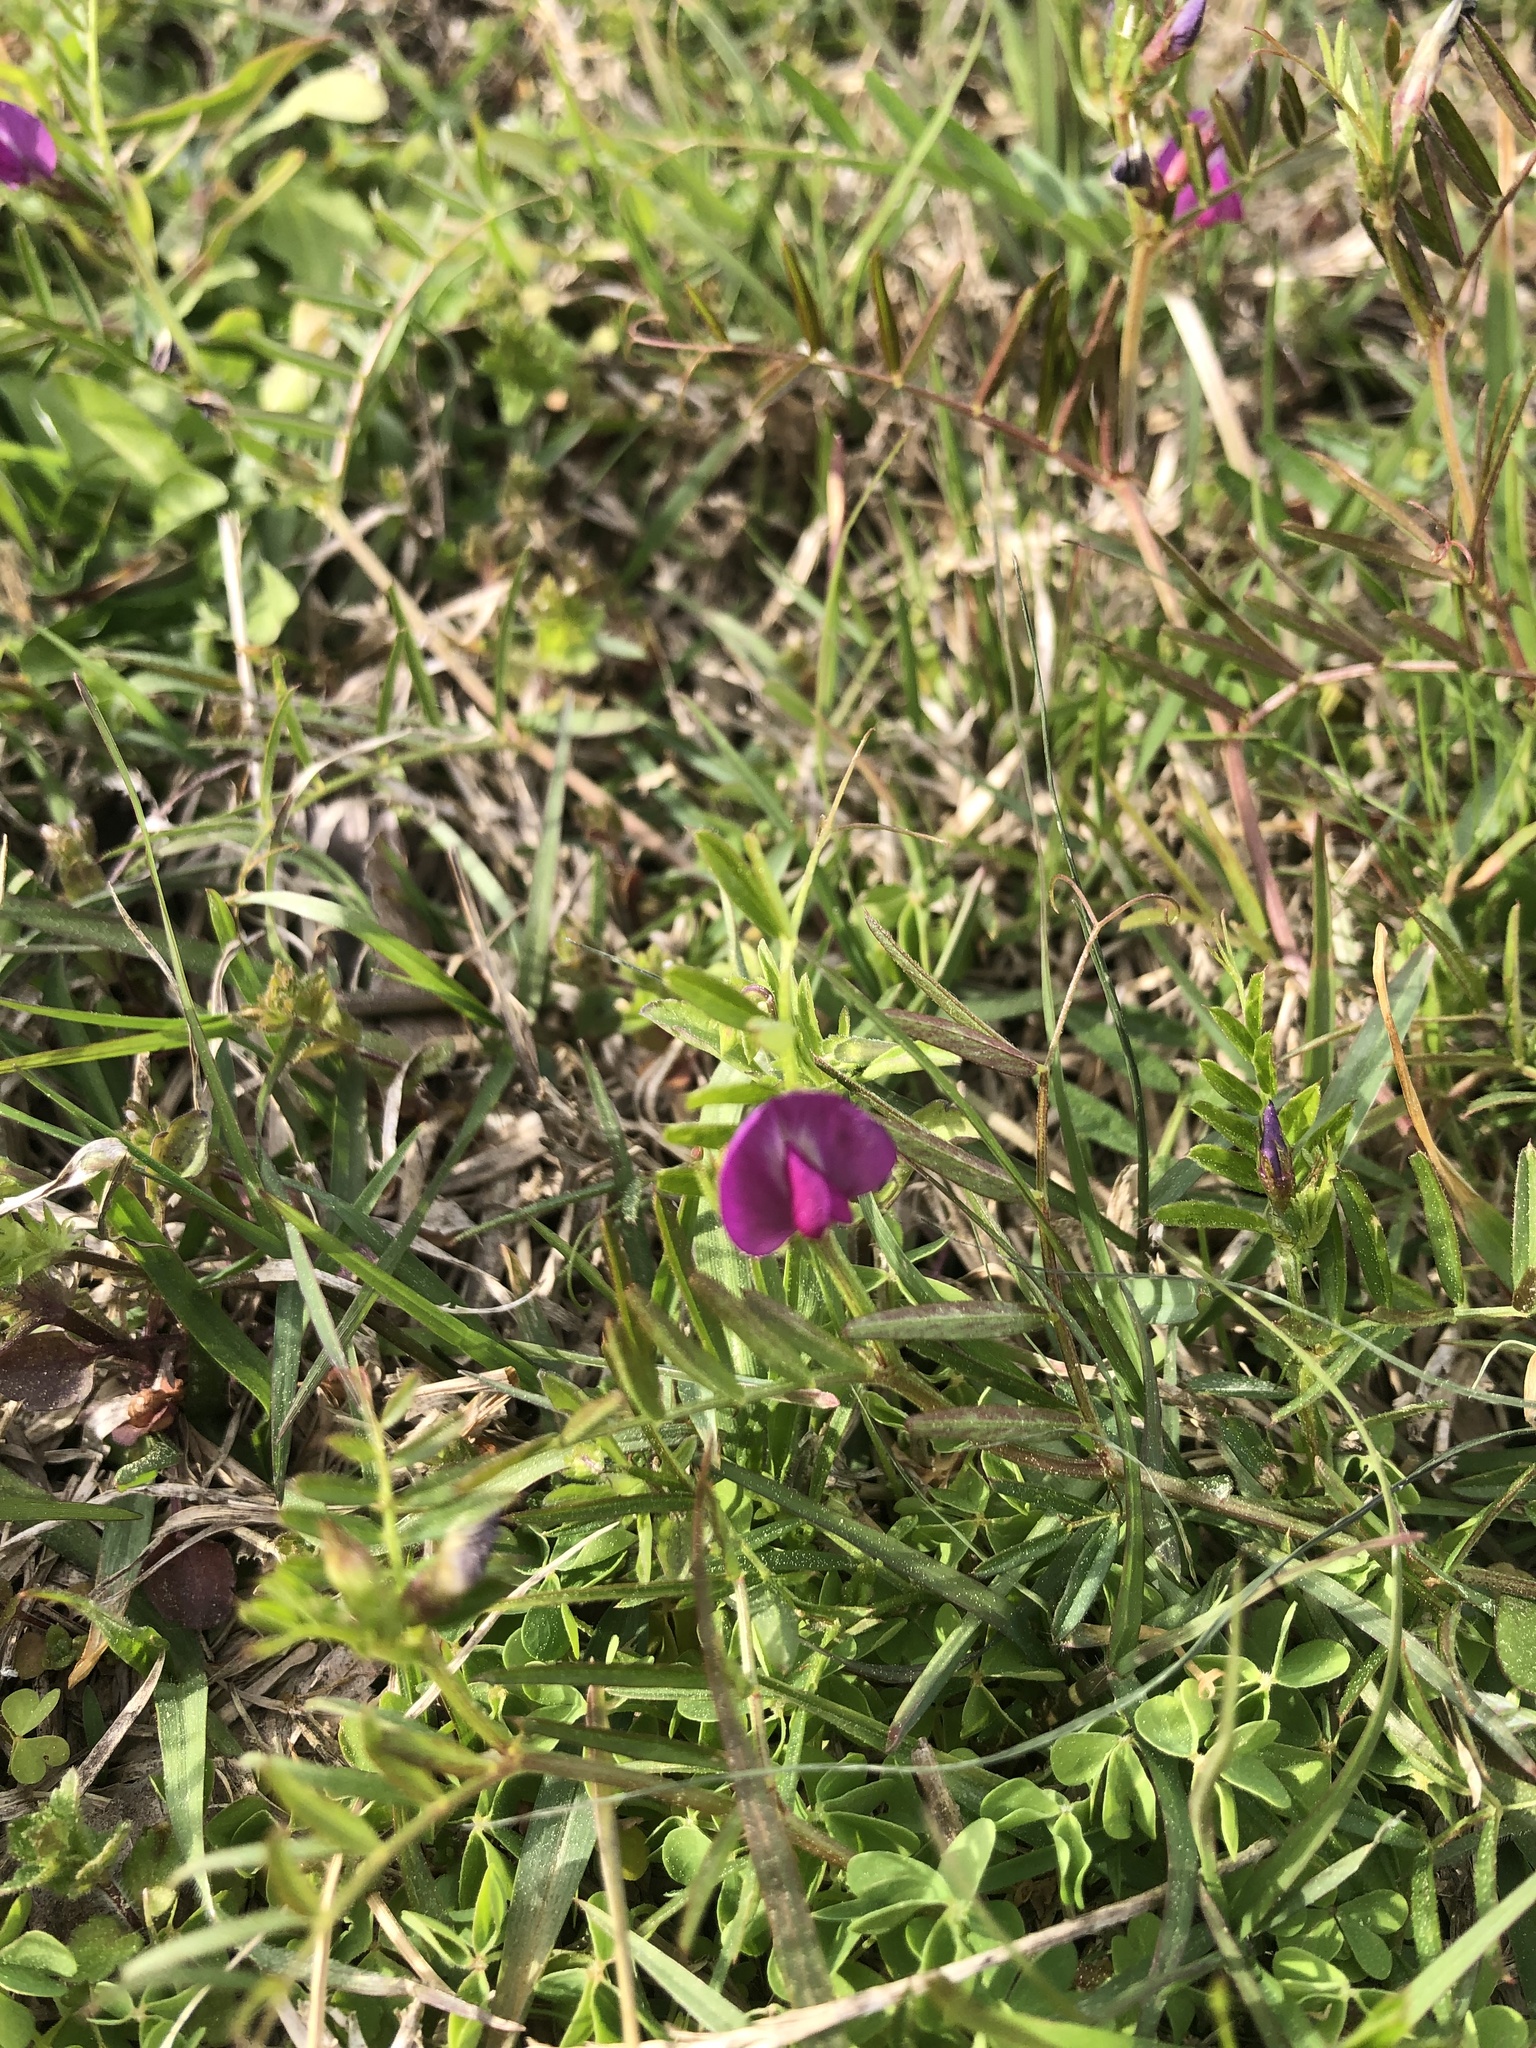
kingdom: Plantae
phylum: Tracheophyta
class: Magnoliopsida
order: Fabales
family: Fabaceae
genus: Vicia
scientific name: Vicia sativa
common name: Garden vetch
